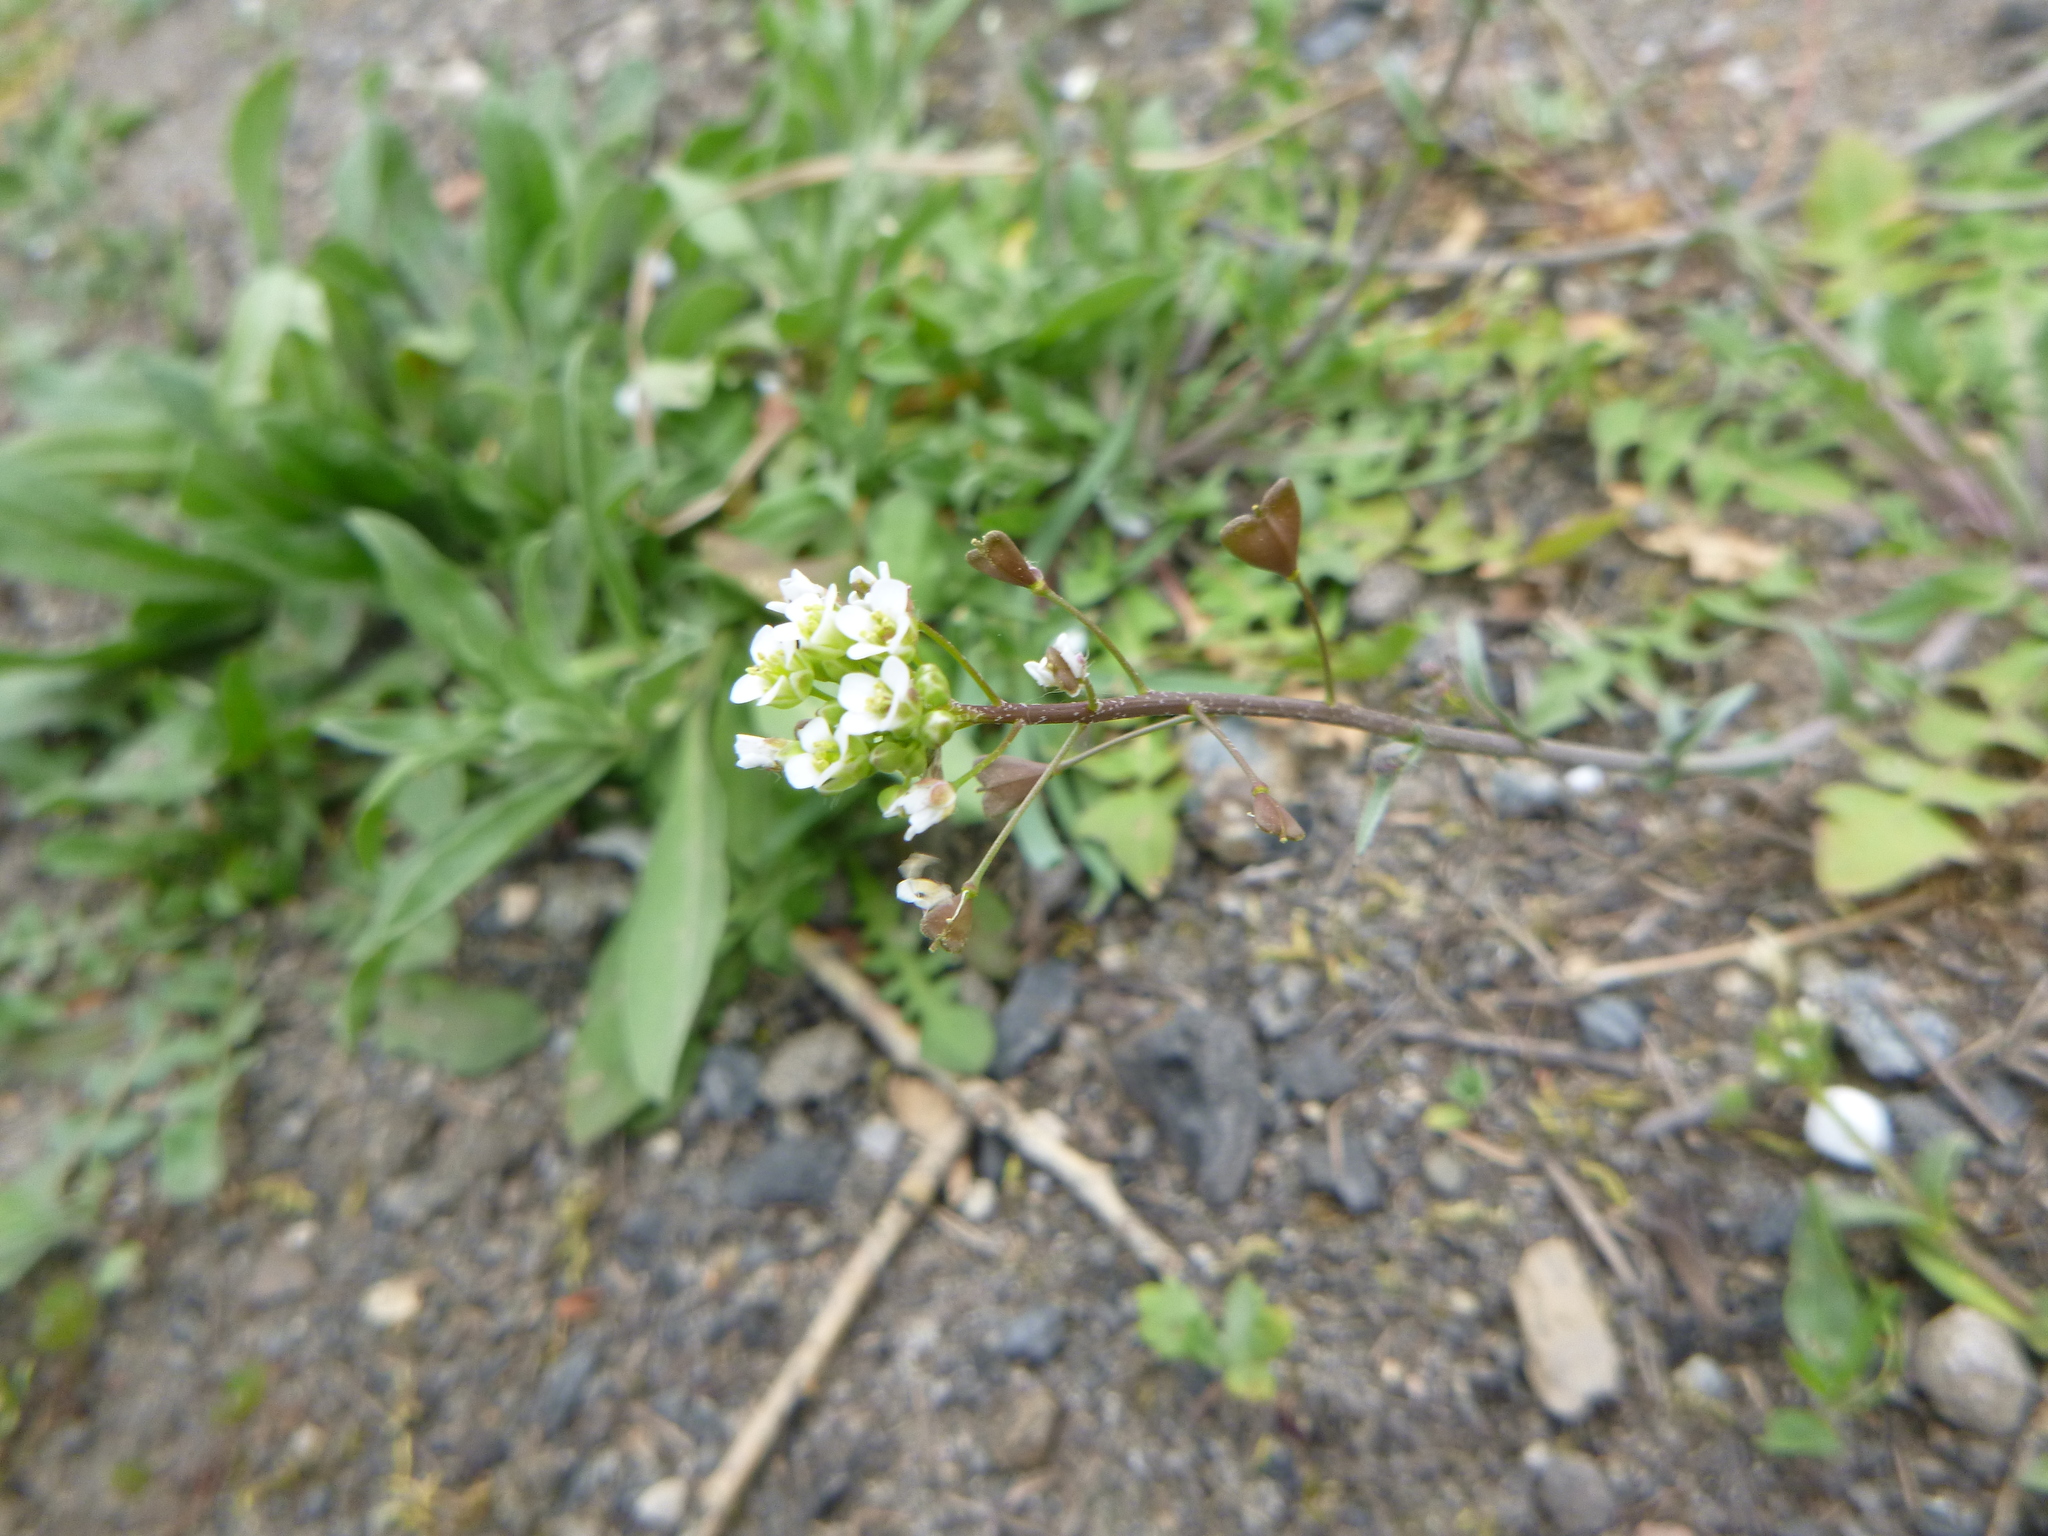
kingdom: Plantae
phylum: Tracheophyta
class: Magnoliopsida
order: Brassicales
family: Brassicaceae
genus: Capsella
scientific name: Capsella bursa-pastoris
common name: Shepherd's purse
